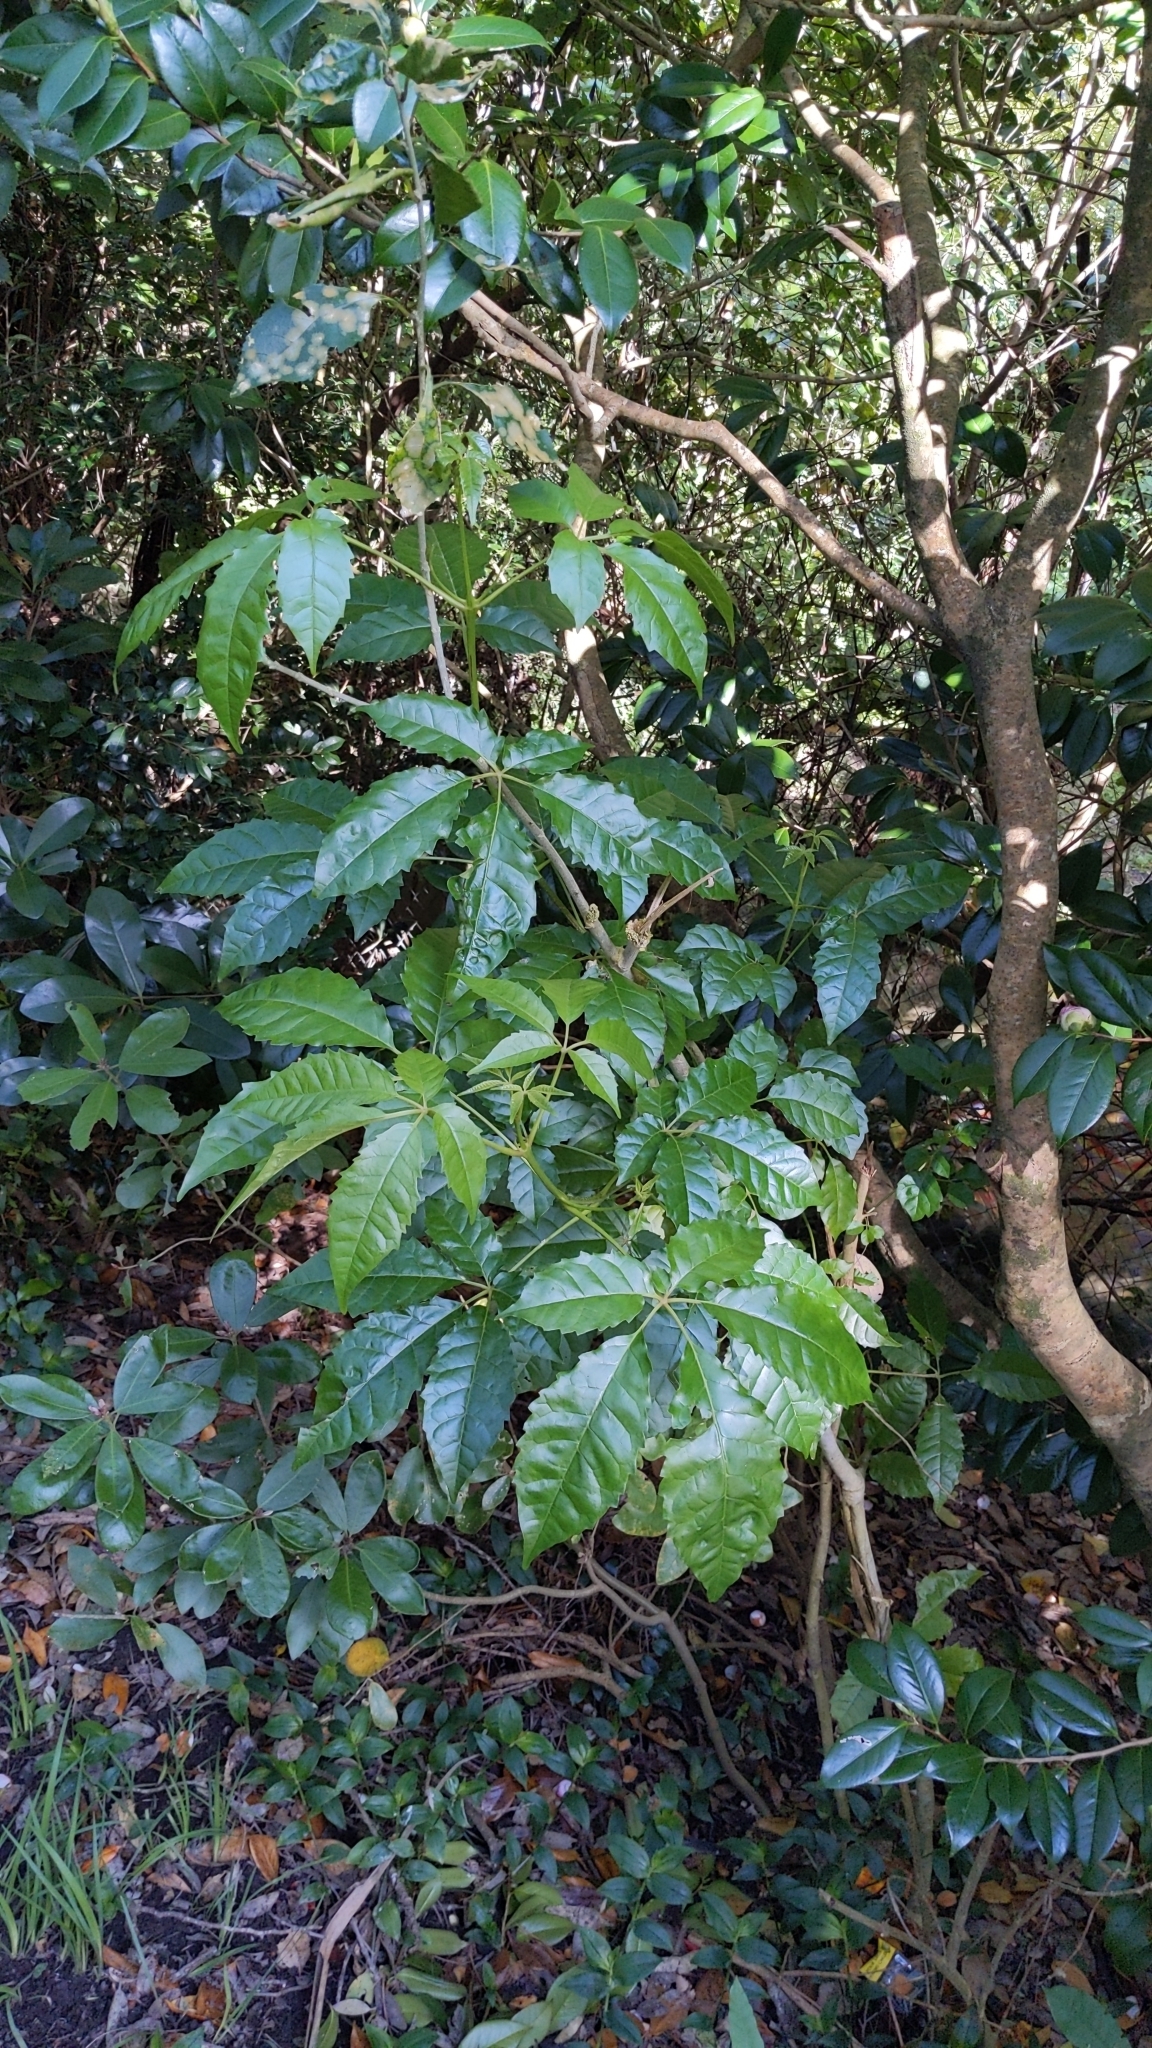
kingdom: Plantae
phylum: Tracheophyta
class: Magnoliopsida
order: Lamiales
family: Lamiaceae
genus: Vitex
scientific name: Vitex lucens
